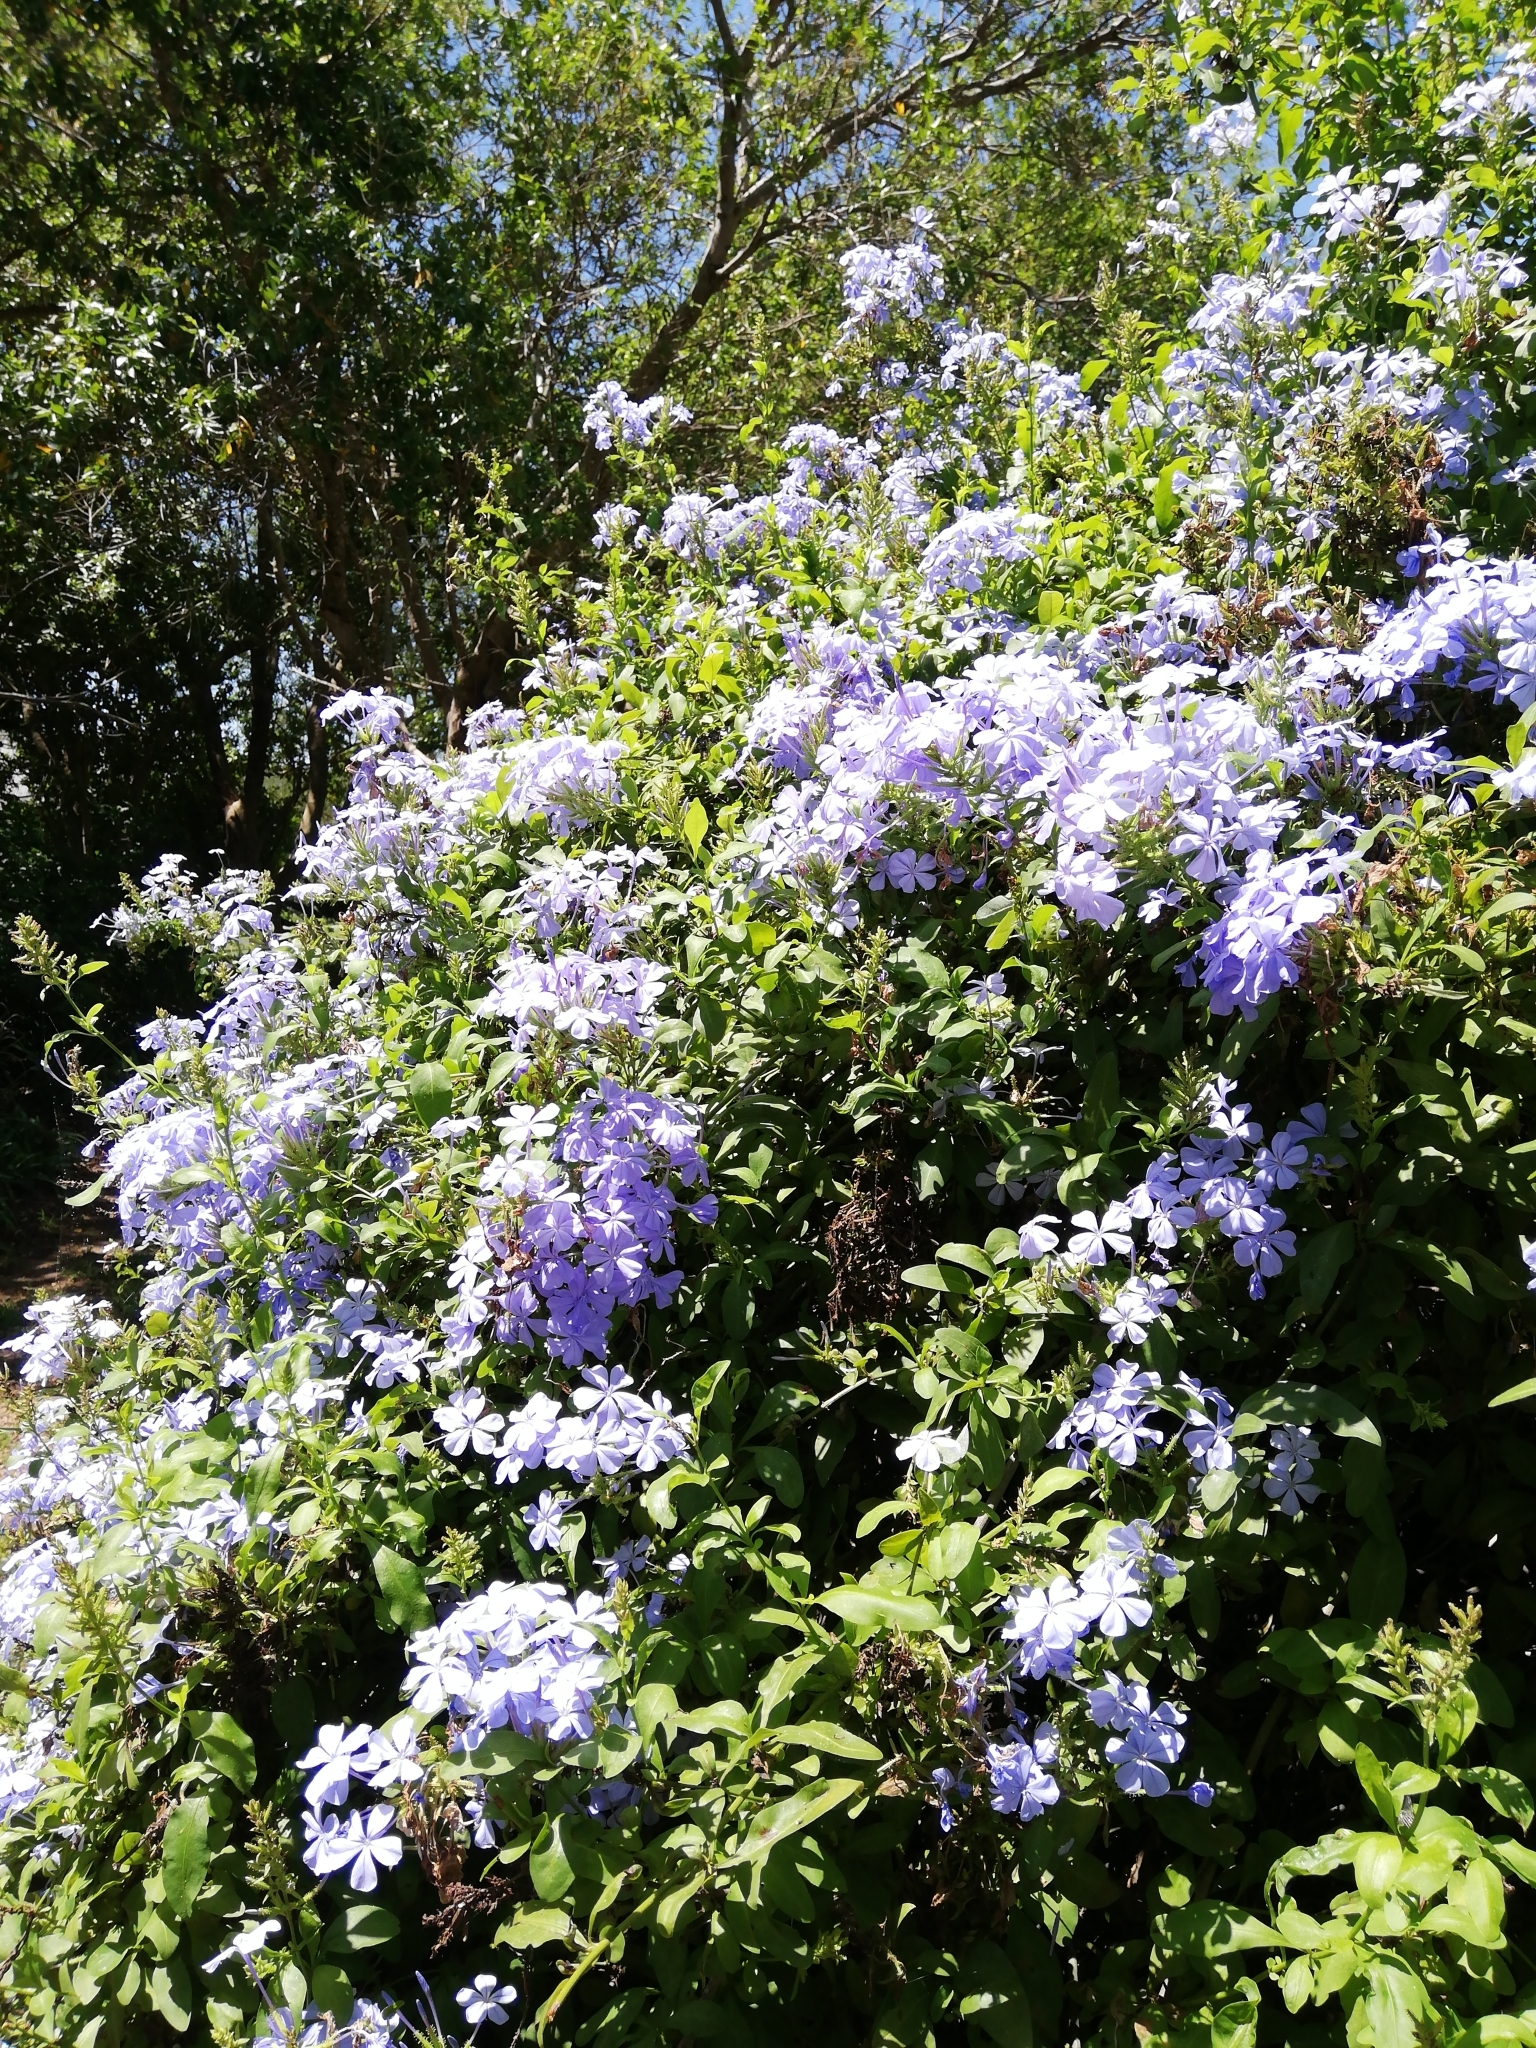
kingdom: Plantae
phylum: Tracheophyta
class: Magnoliopsida
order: Caryophyllales
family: Plumbaginaceae
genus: Plumbago
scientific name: Plumbago auriculata
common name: Cape leadwort
